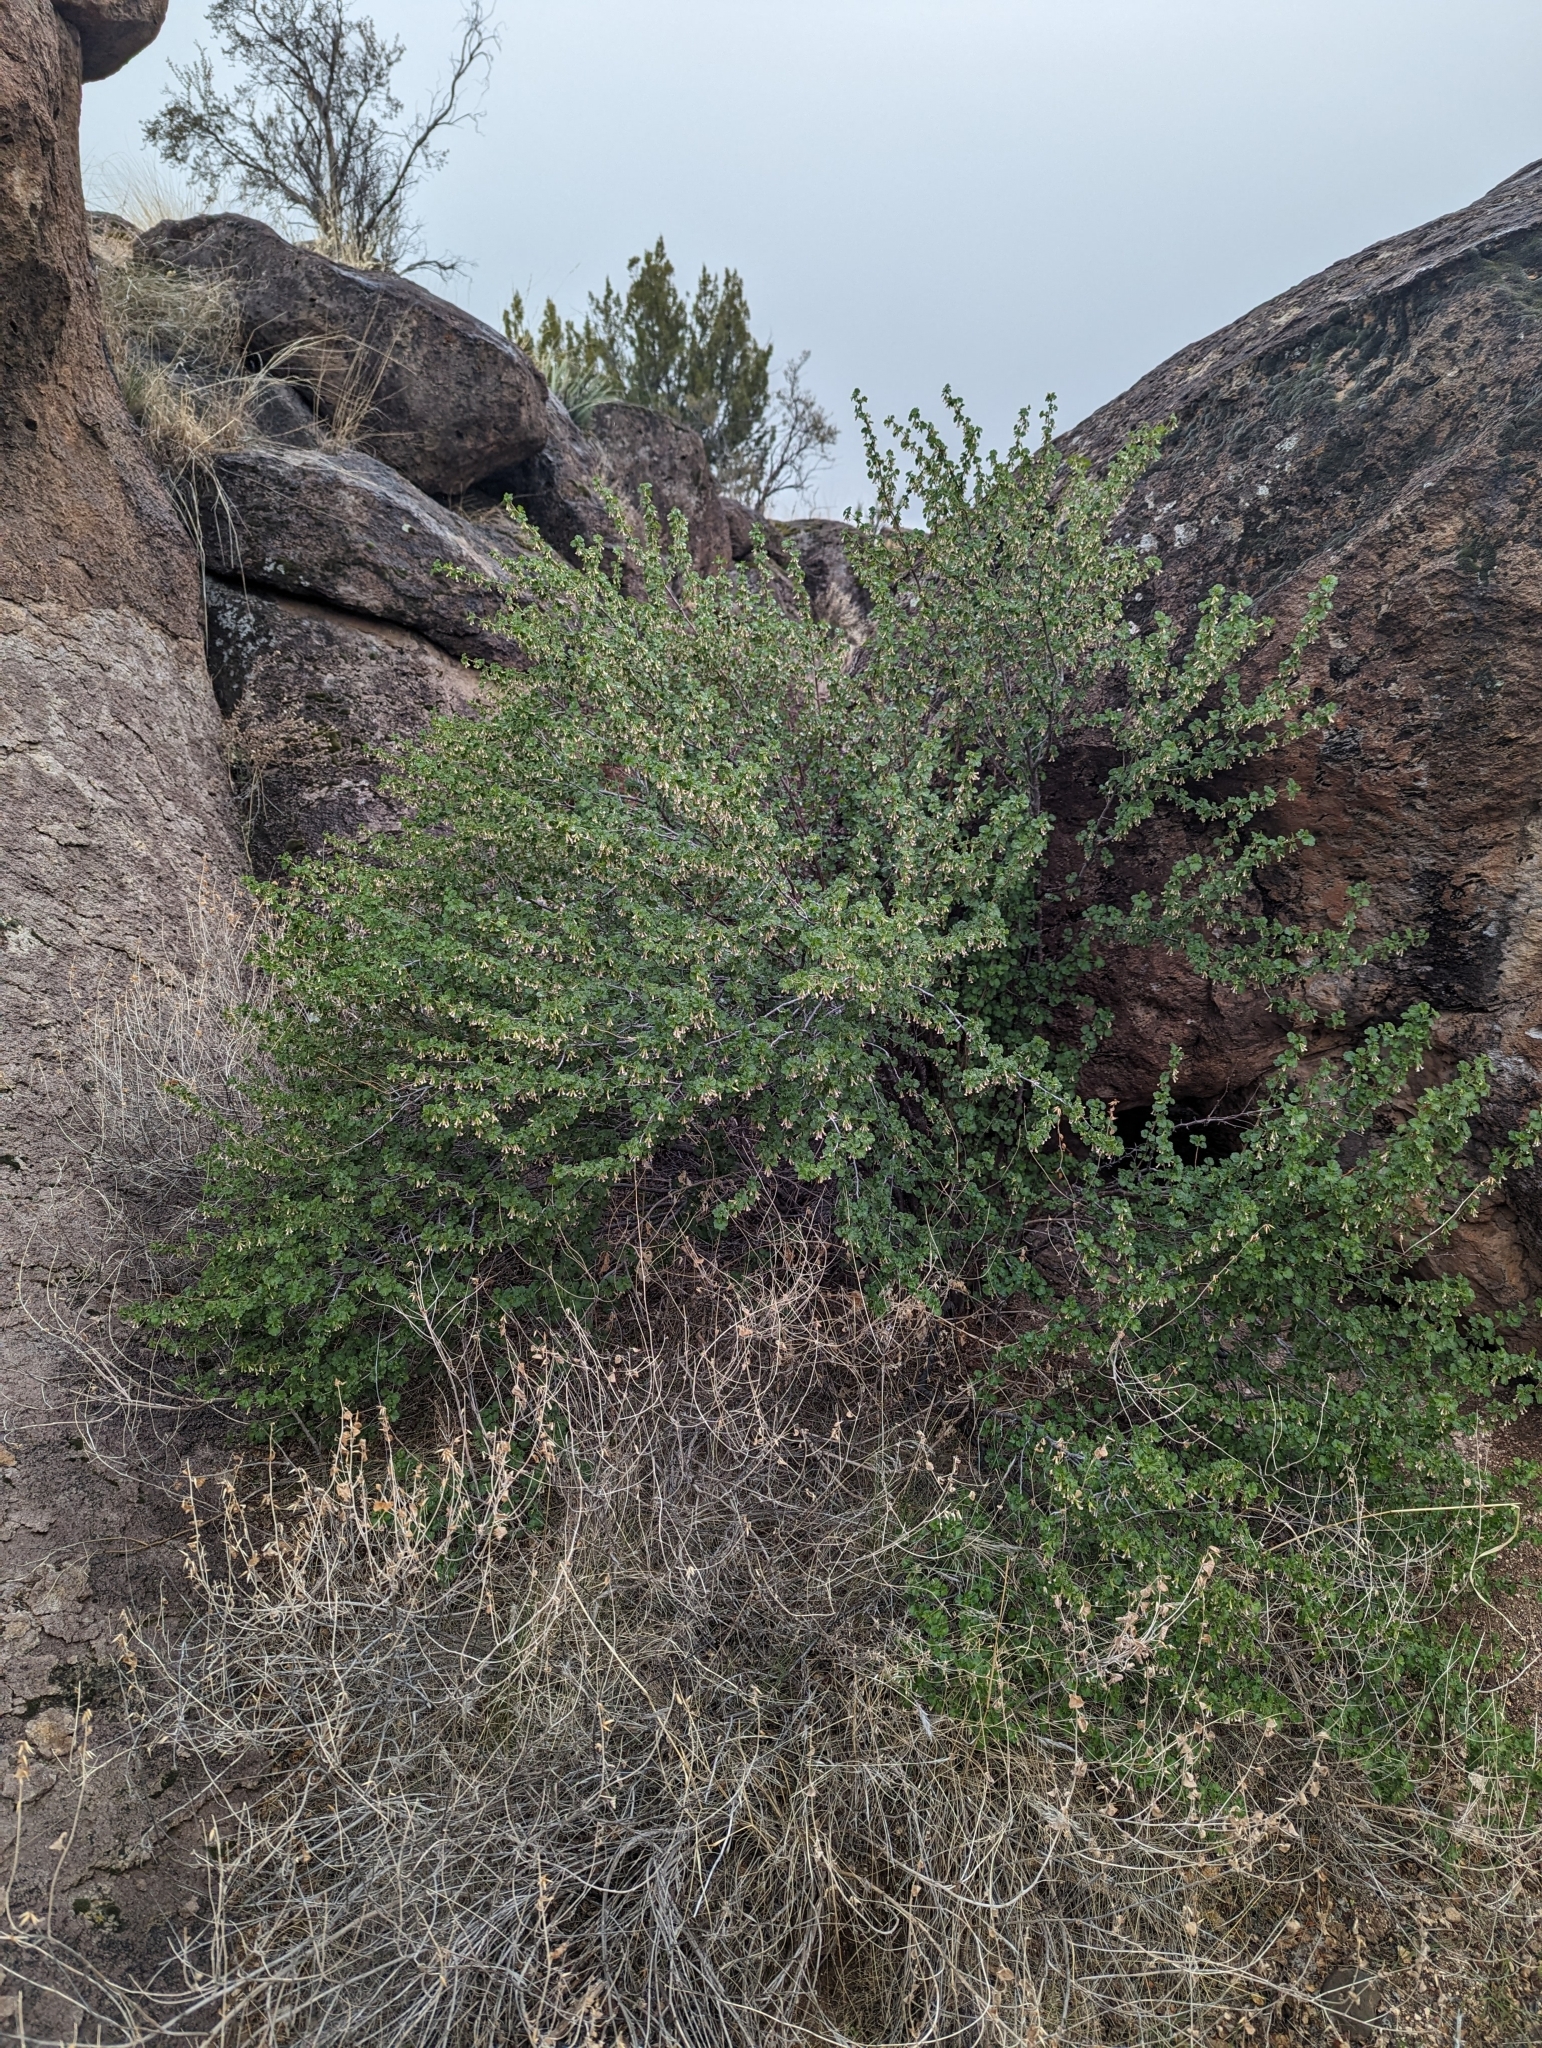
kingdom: Plantae
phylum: Tracheophyta
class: Magnoliopsida
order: Saxifragales
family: Grossulariaceae
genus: Ribes
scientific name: Ribes cereum
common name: Wax currant
